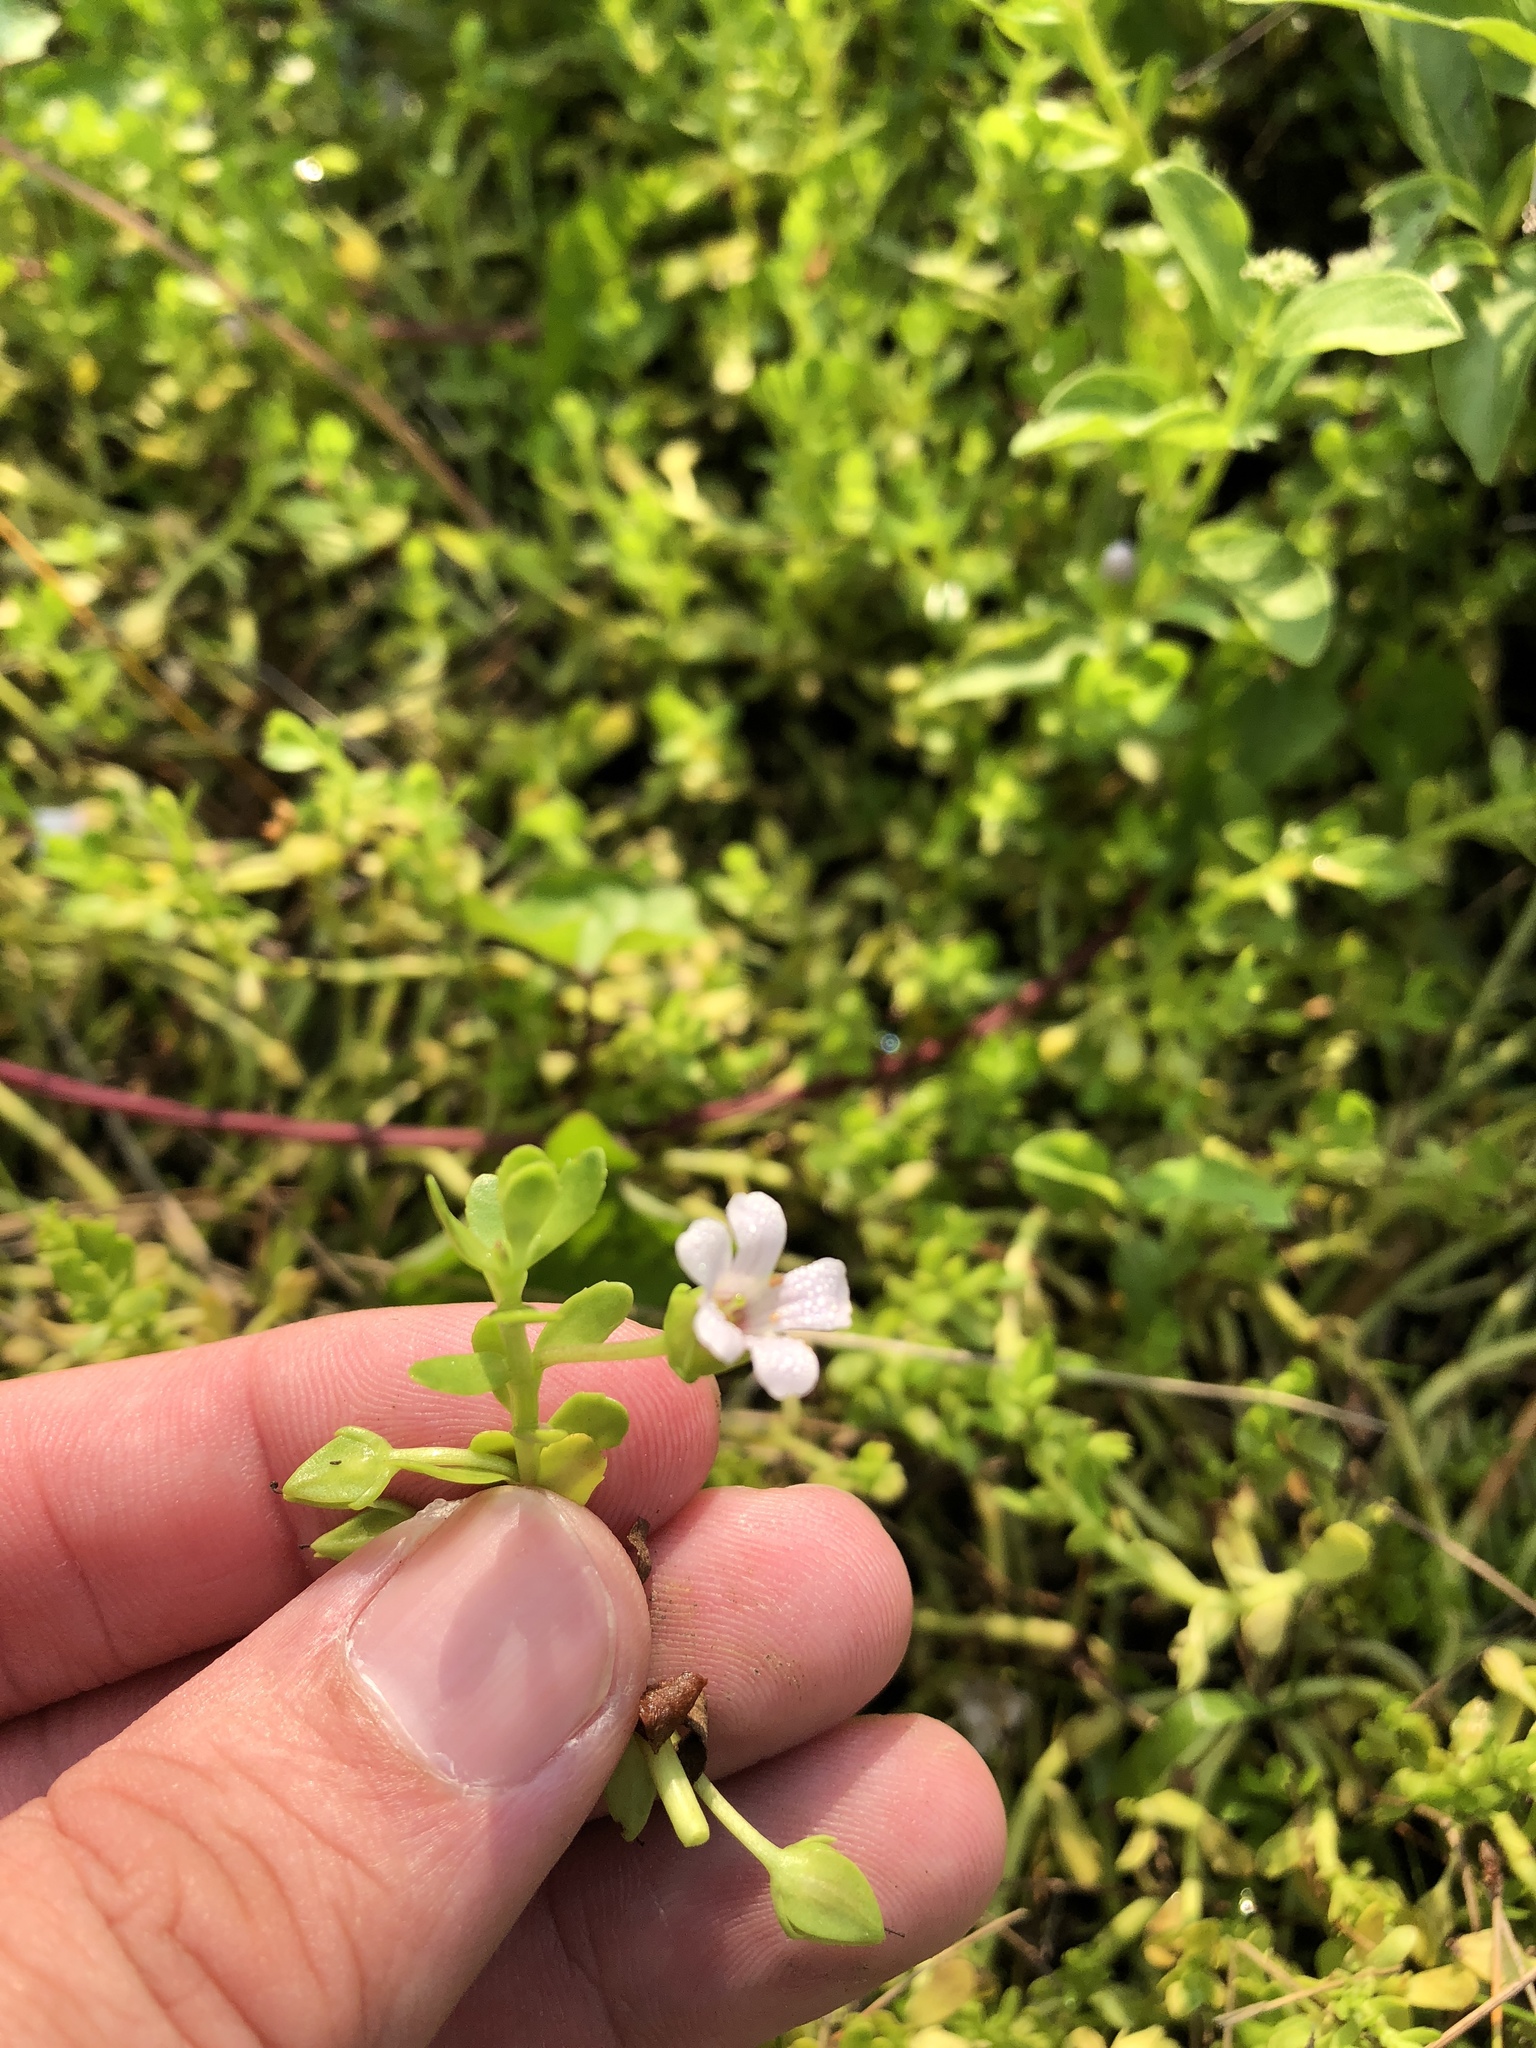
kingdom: Plantae
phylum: Tracheophyta
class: Magnoliopsida
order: Lamiales
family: Plantaginaceae
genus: Bacopa
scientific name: Bacopa monnieri
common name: Indian-pennywort
